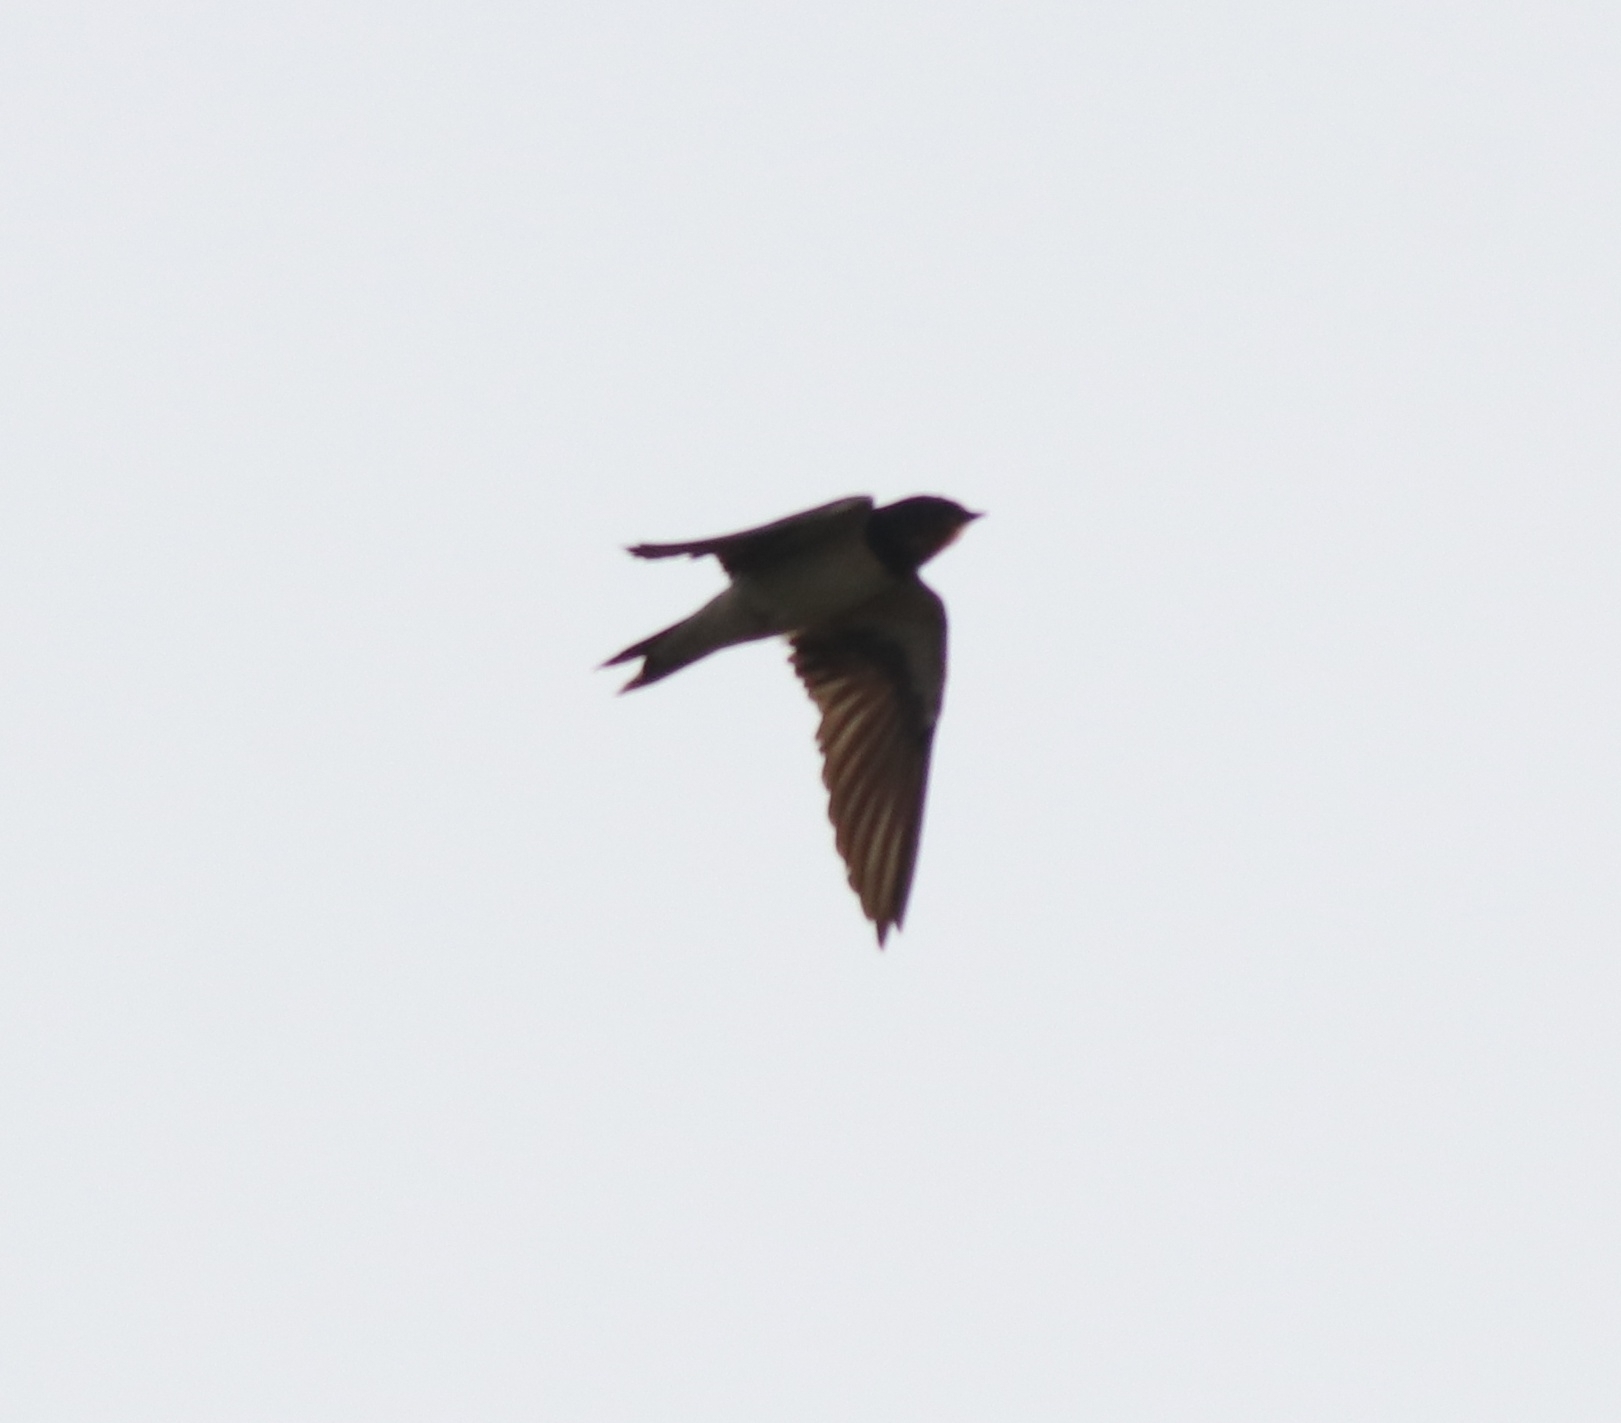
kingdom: Animalia
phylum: Chordata
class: Aves
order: Passeriformes
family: Hirundinidae
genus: Hirundo
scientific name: Hirundo rustica
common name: Barn swallow
